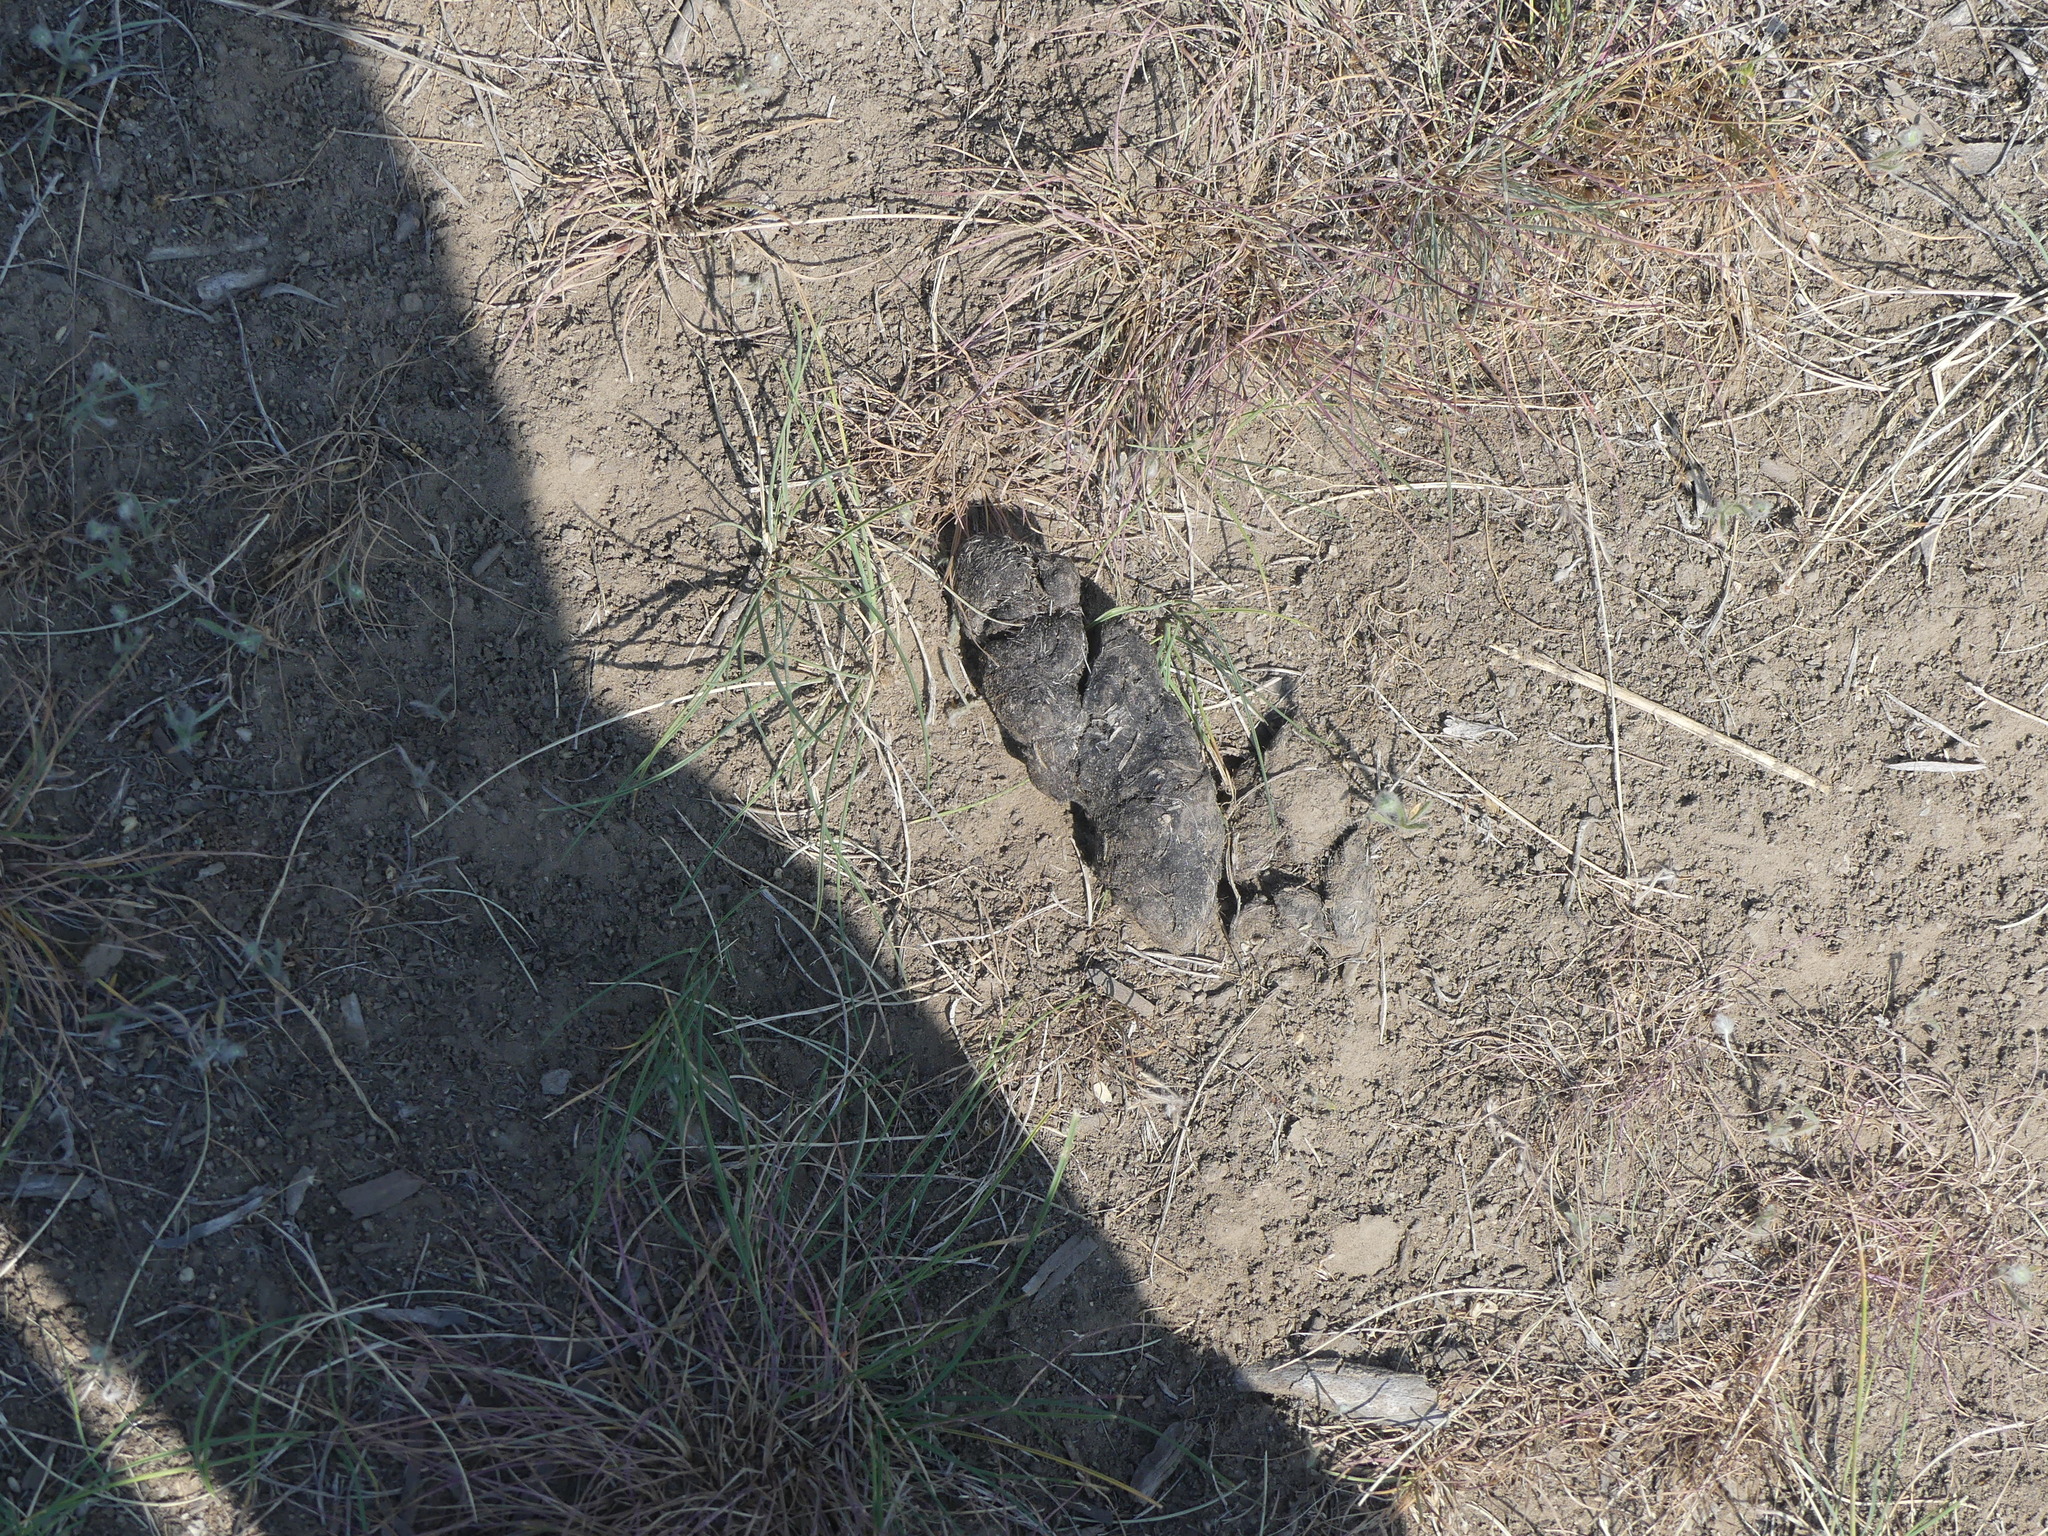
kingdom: Animalia
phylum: Chordata
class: Mammalia
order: Carnivora
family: Canidae
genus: Canis
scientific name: Canis latrans
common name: Coyote
